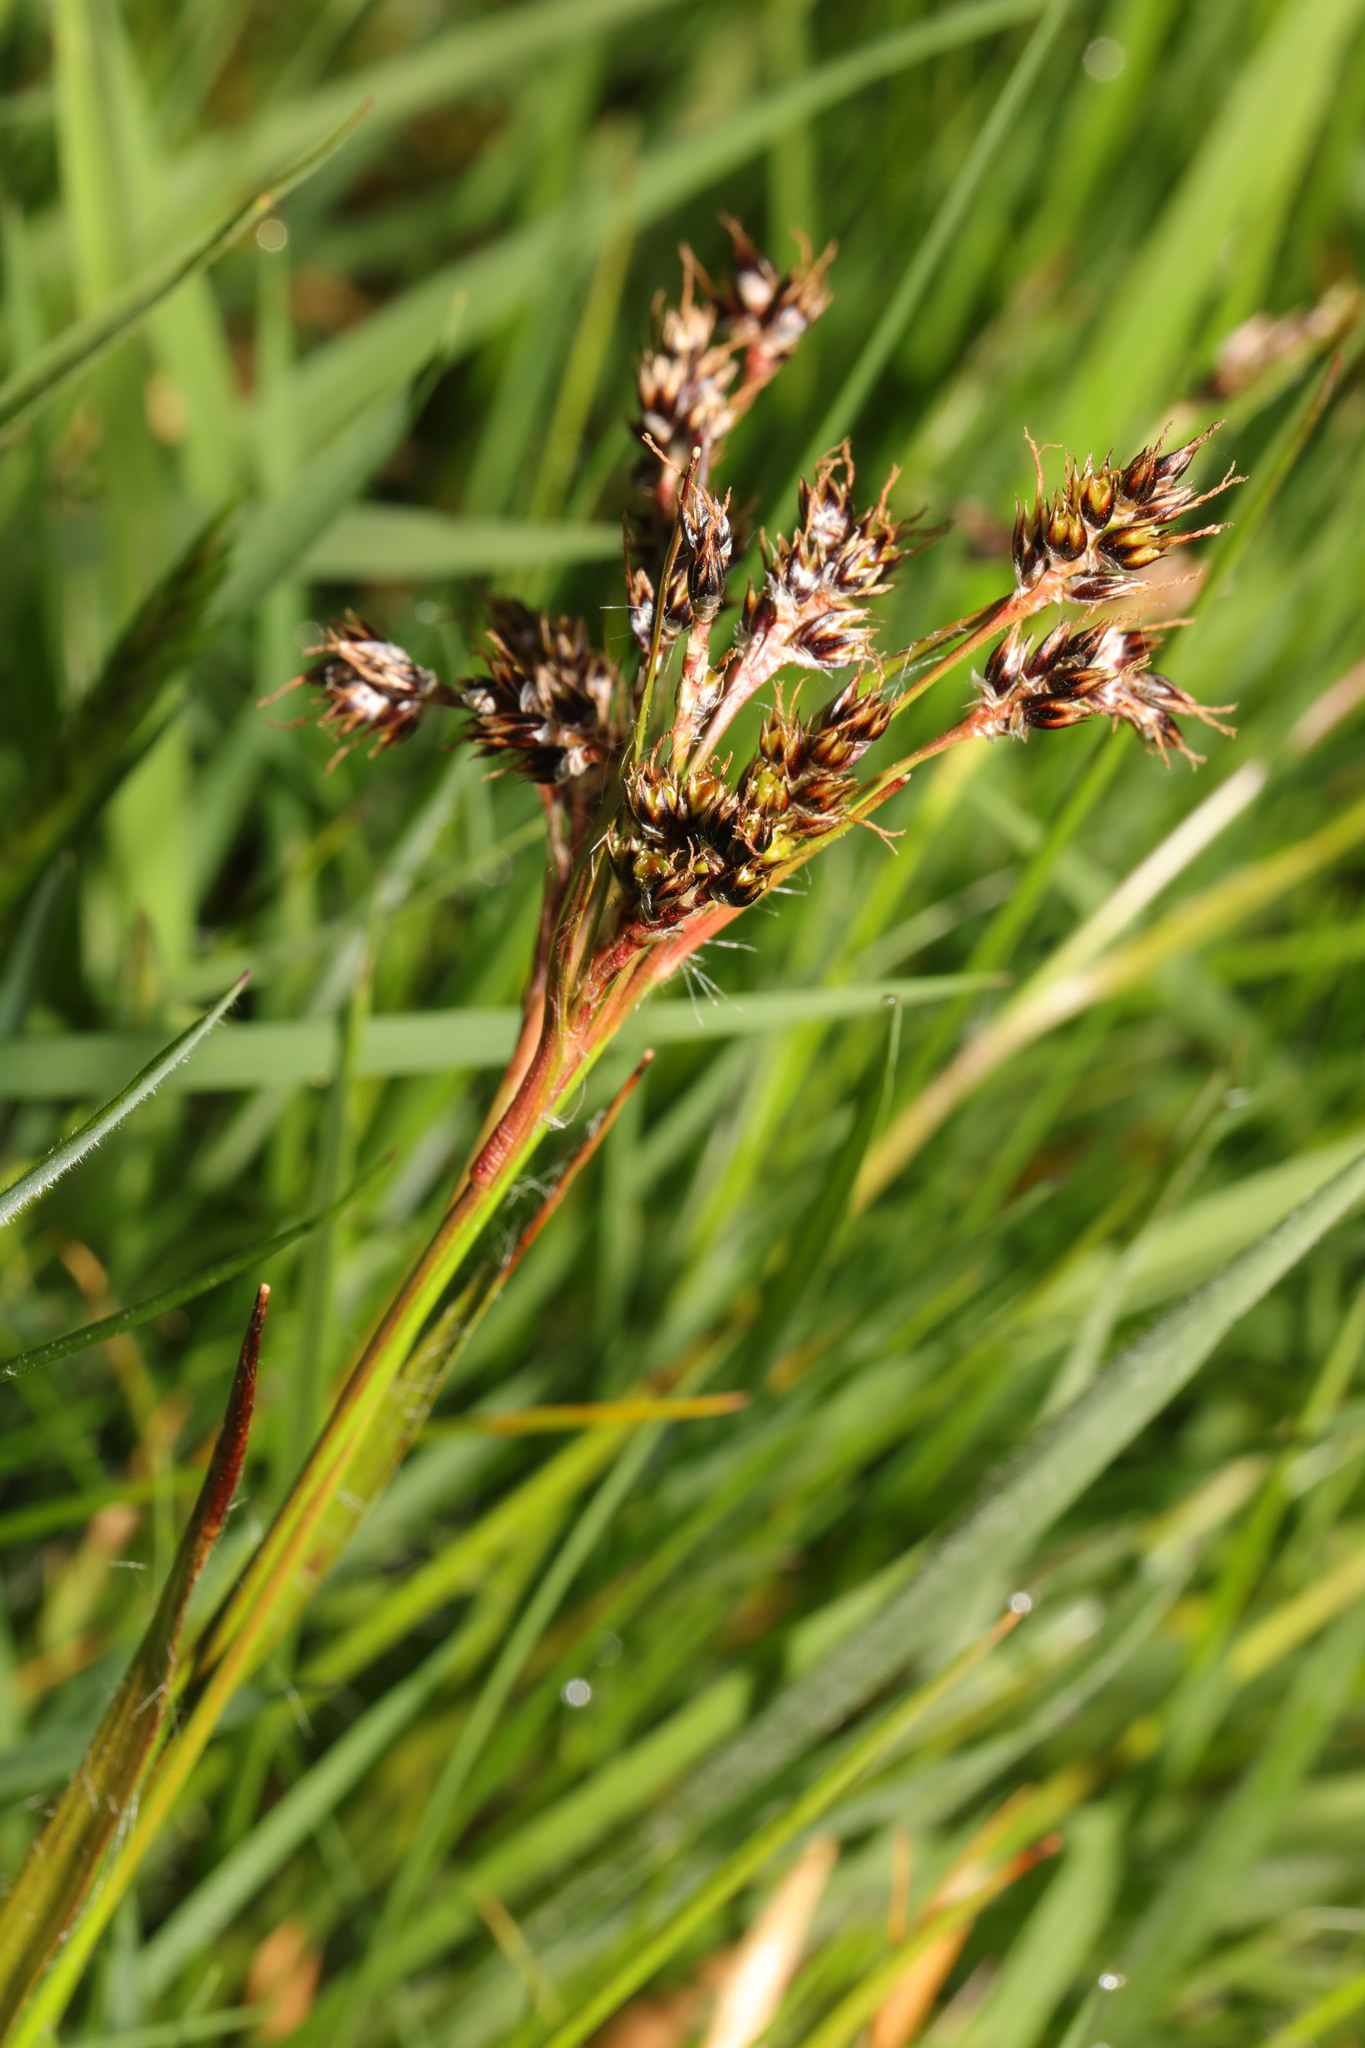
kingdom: Plantae
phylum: Tracheophyta
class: Liliopsida
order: Poales
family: Juncaceae
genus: Luzula
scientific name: Luzula campestris
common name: Field wood-rush
